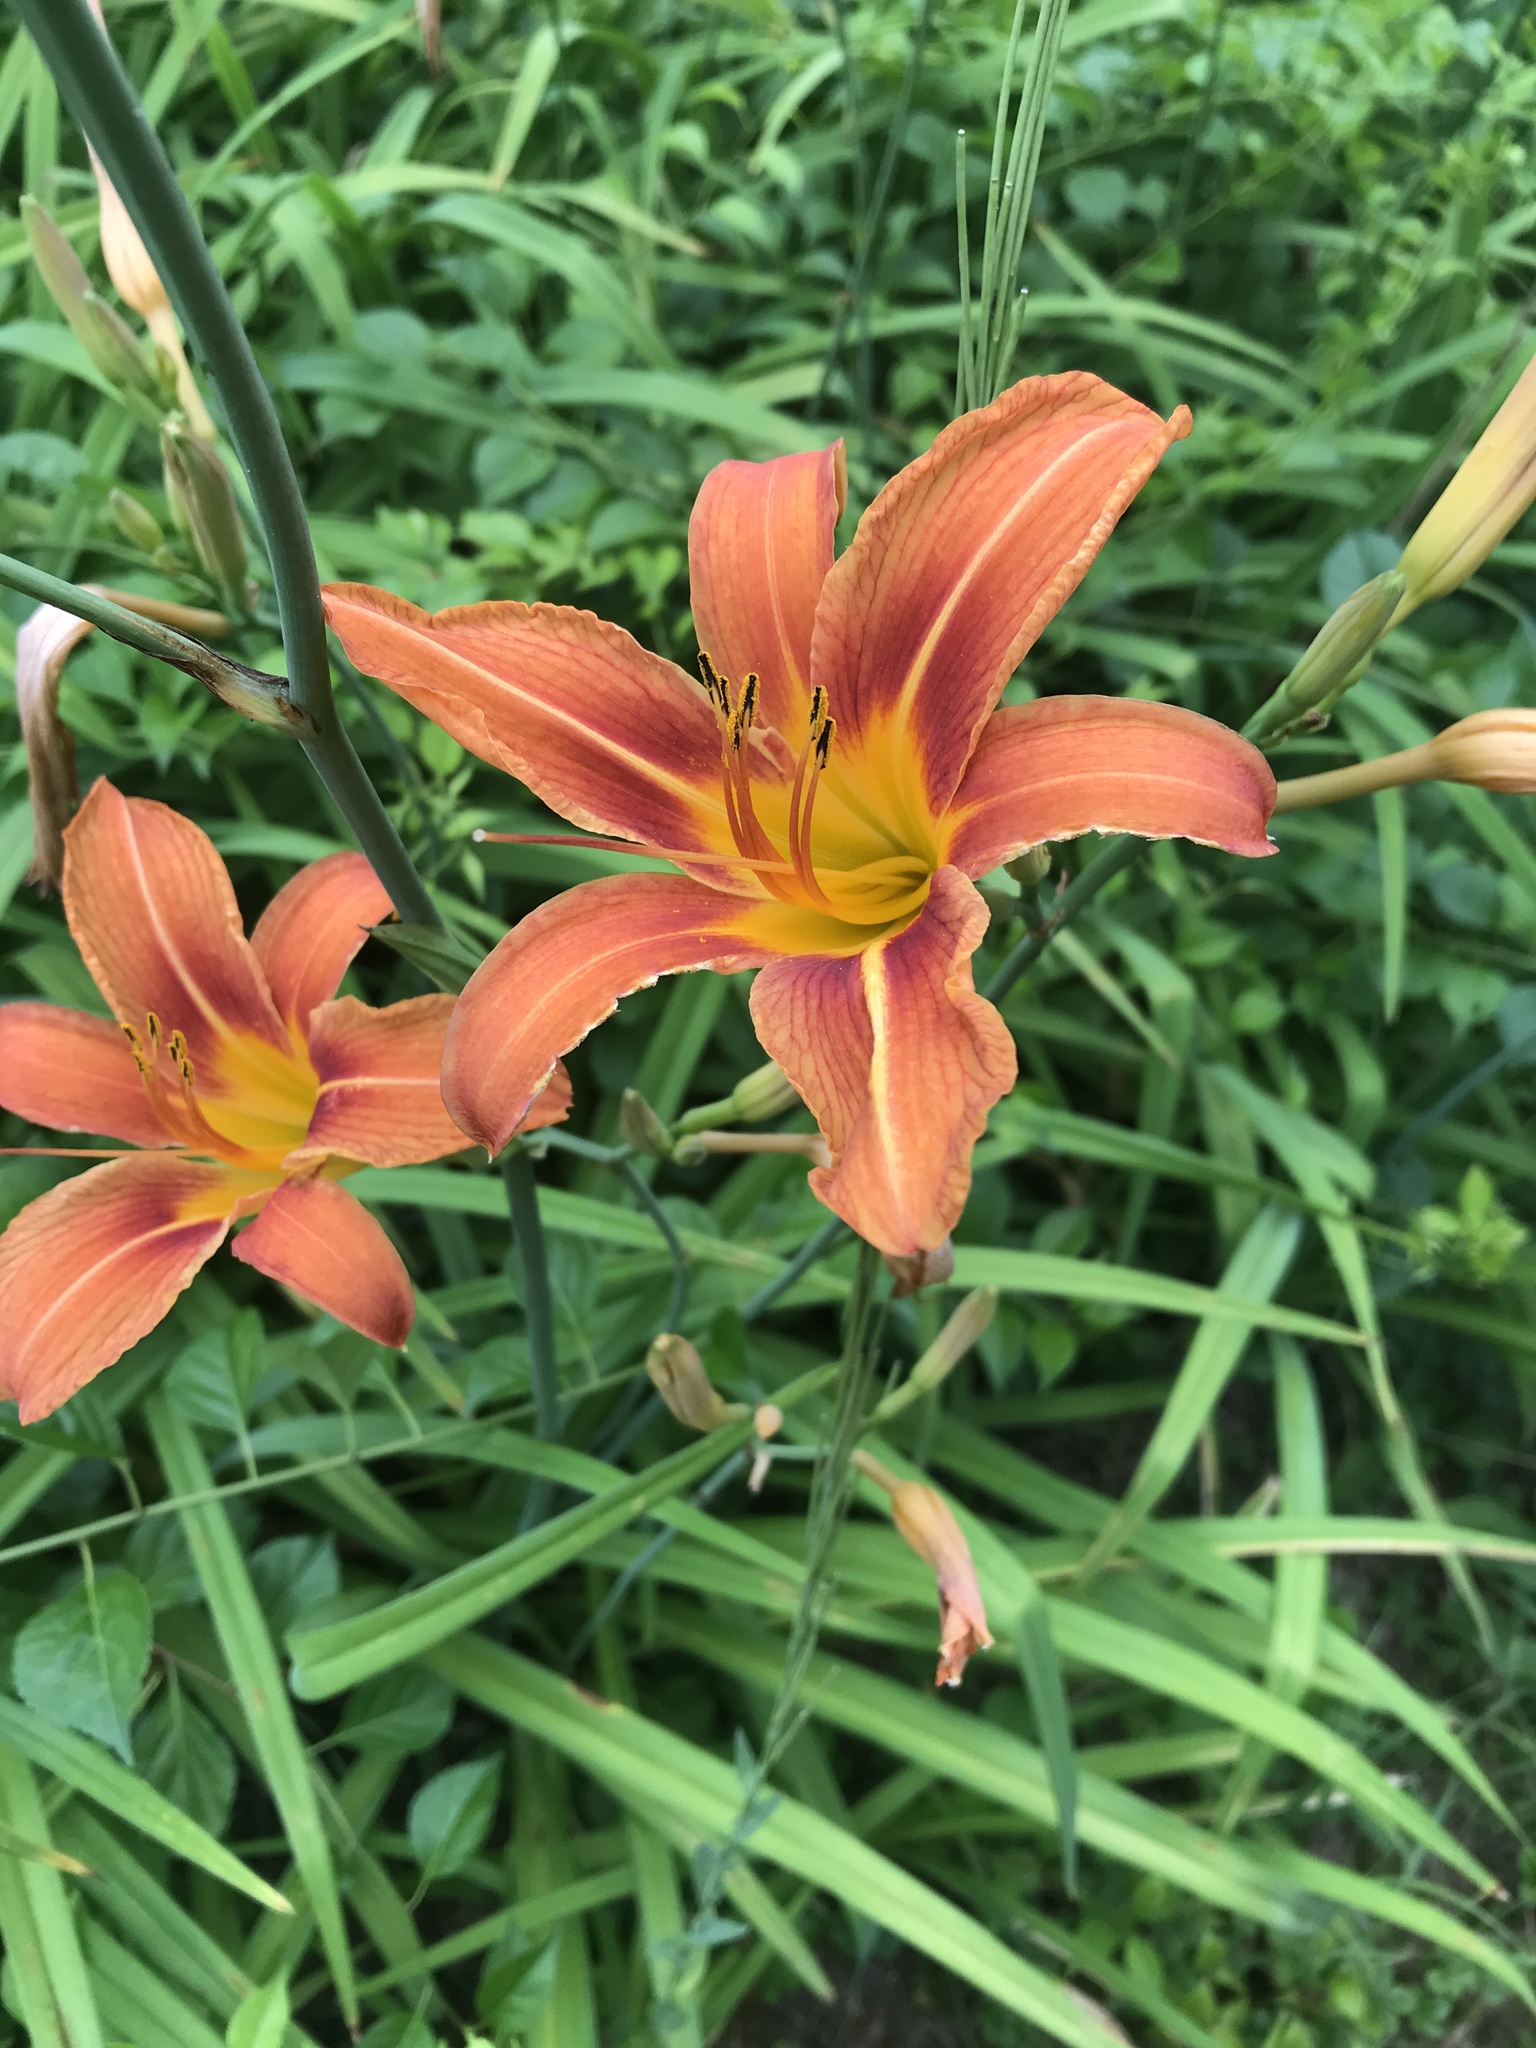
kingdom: Plantae
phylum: Tracheophyta
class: Liliopsida
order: Asparagales
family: Asphodelaceae
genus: Hemerocallis
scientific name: Hemerocallis fulva
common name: Orange day-lily
